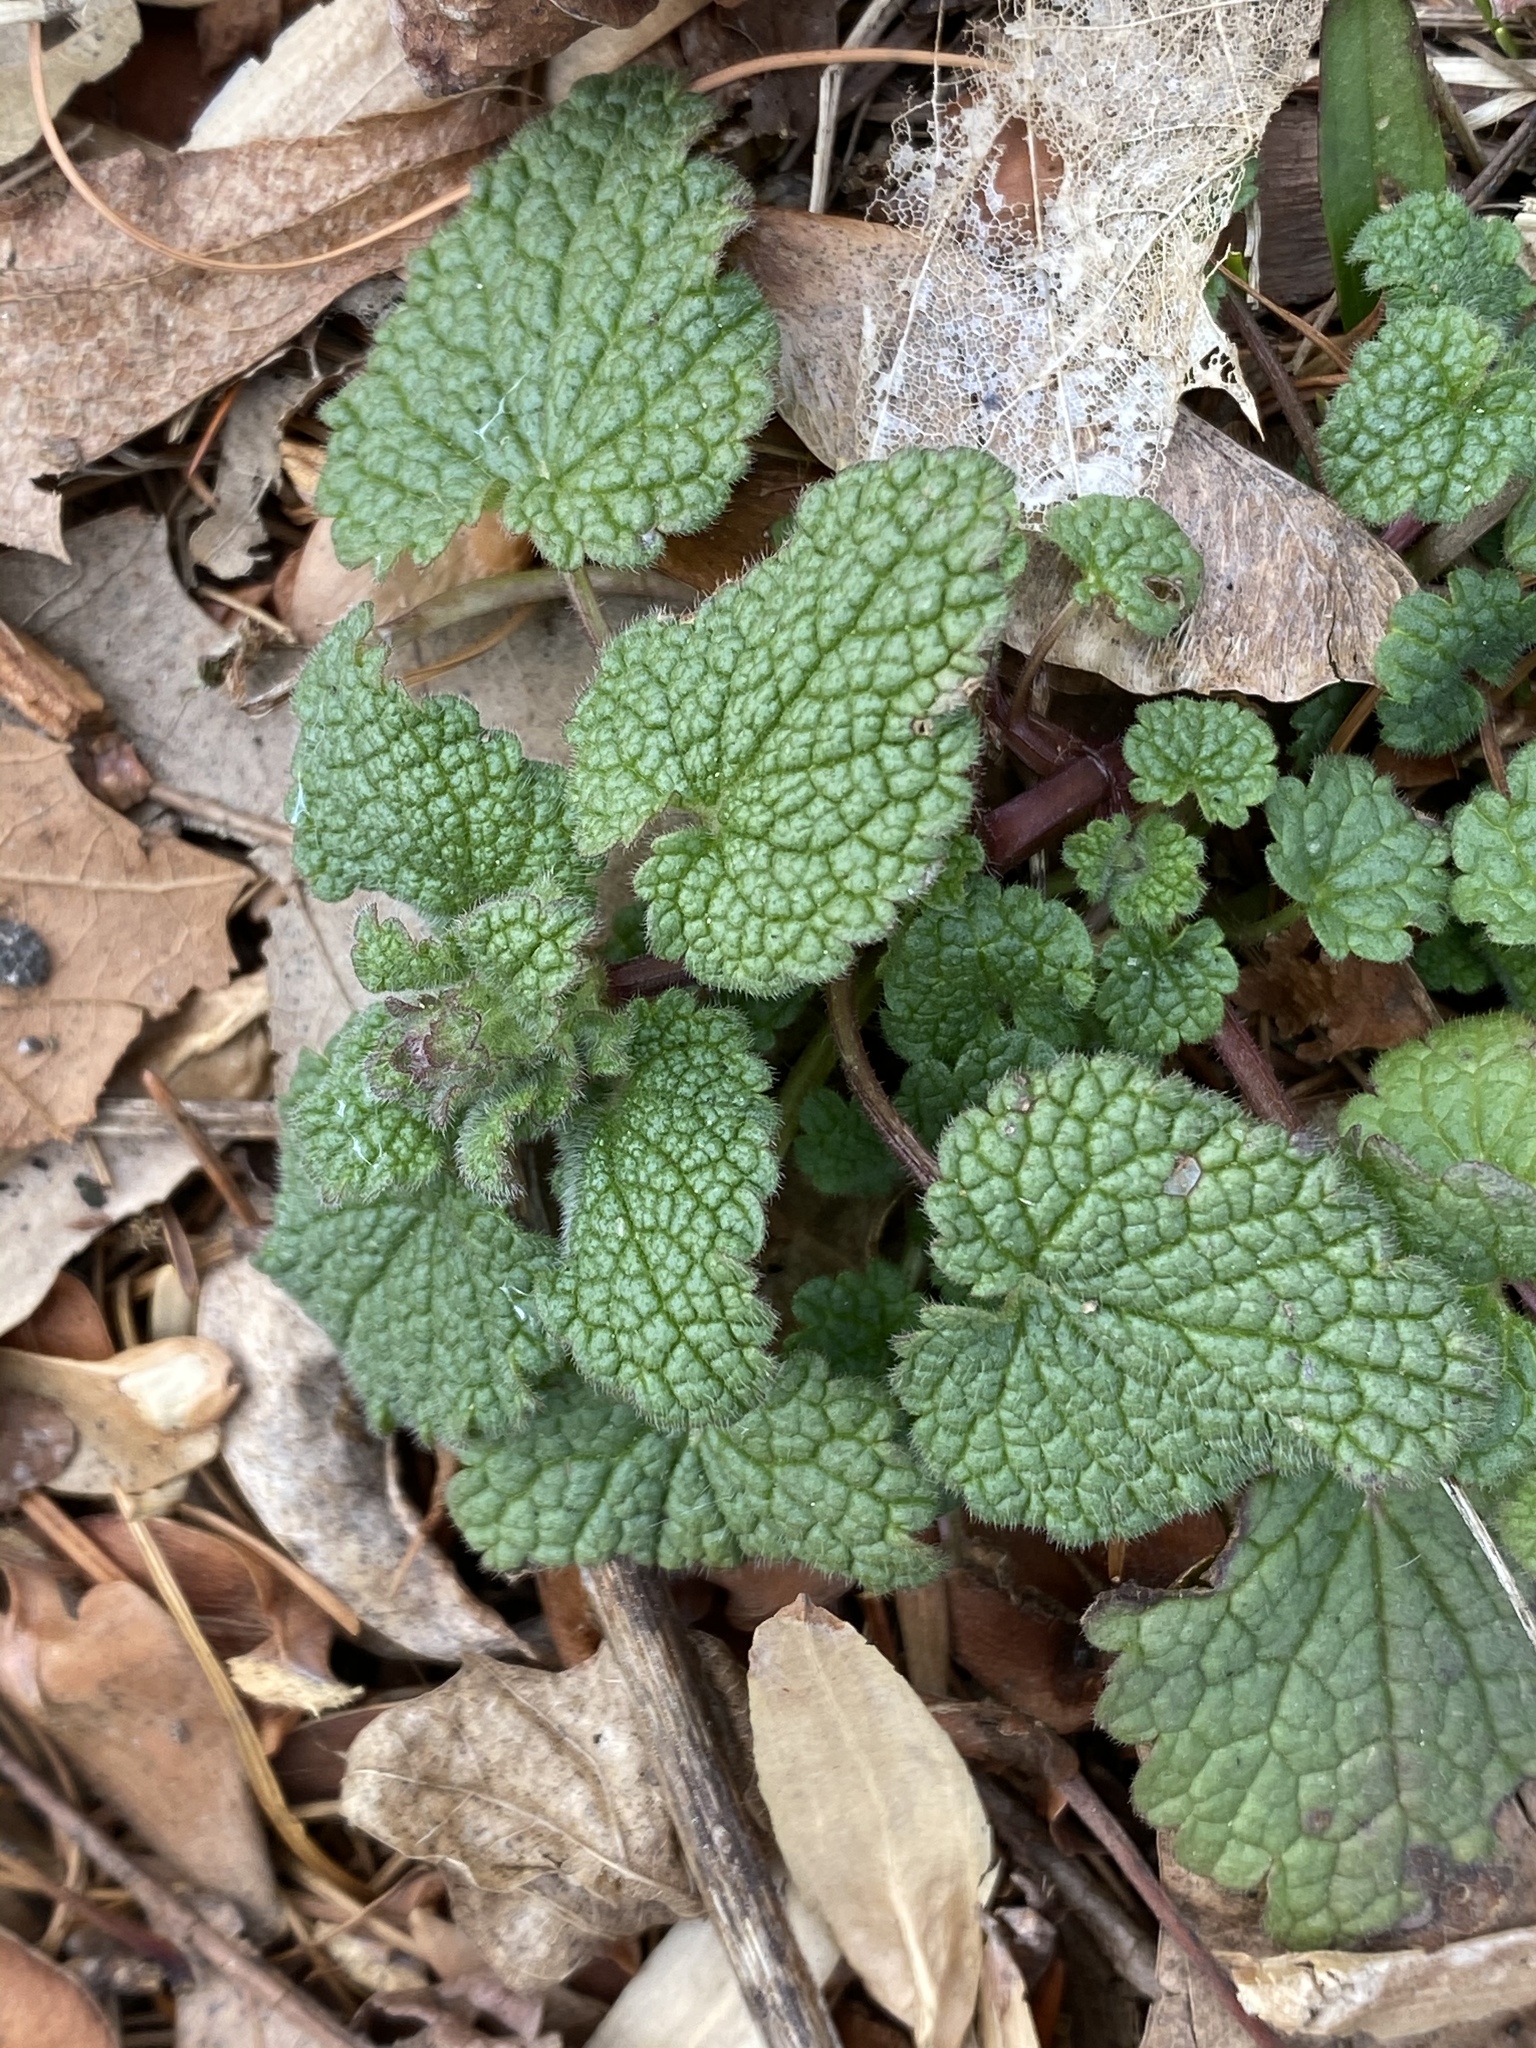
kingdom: Plantae
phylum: Tracheophyta
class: Magnoliopsida
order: Lamiales
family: Lamiaceae
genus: Lamium
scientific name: Lamium purpureum
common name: Red dead-nettle
